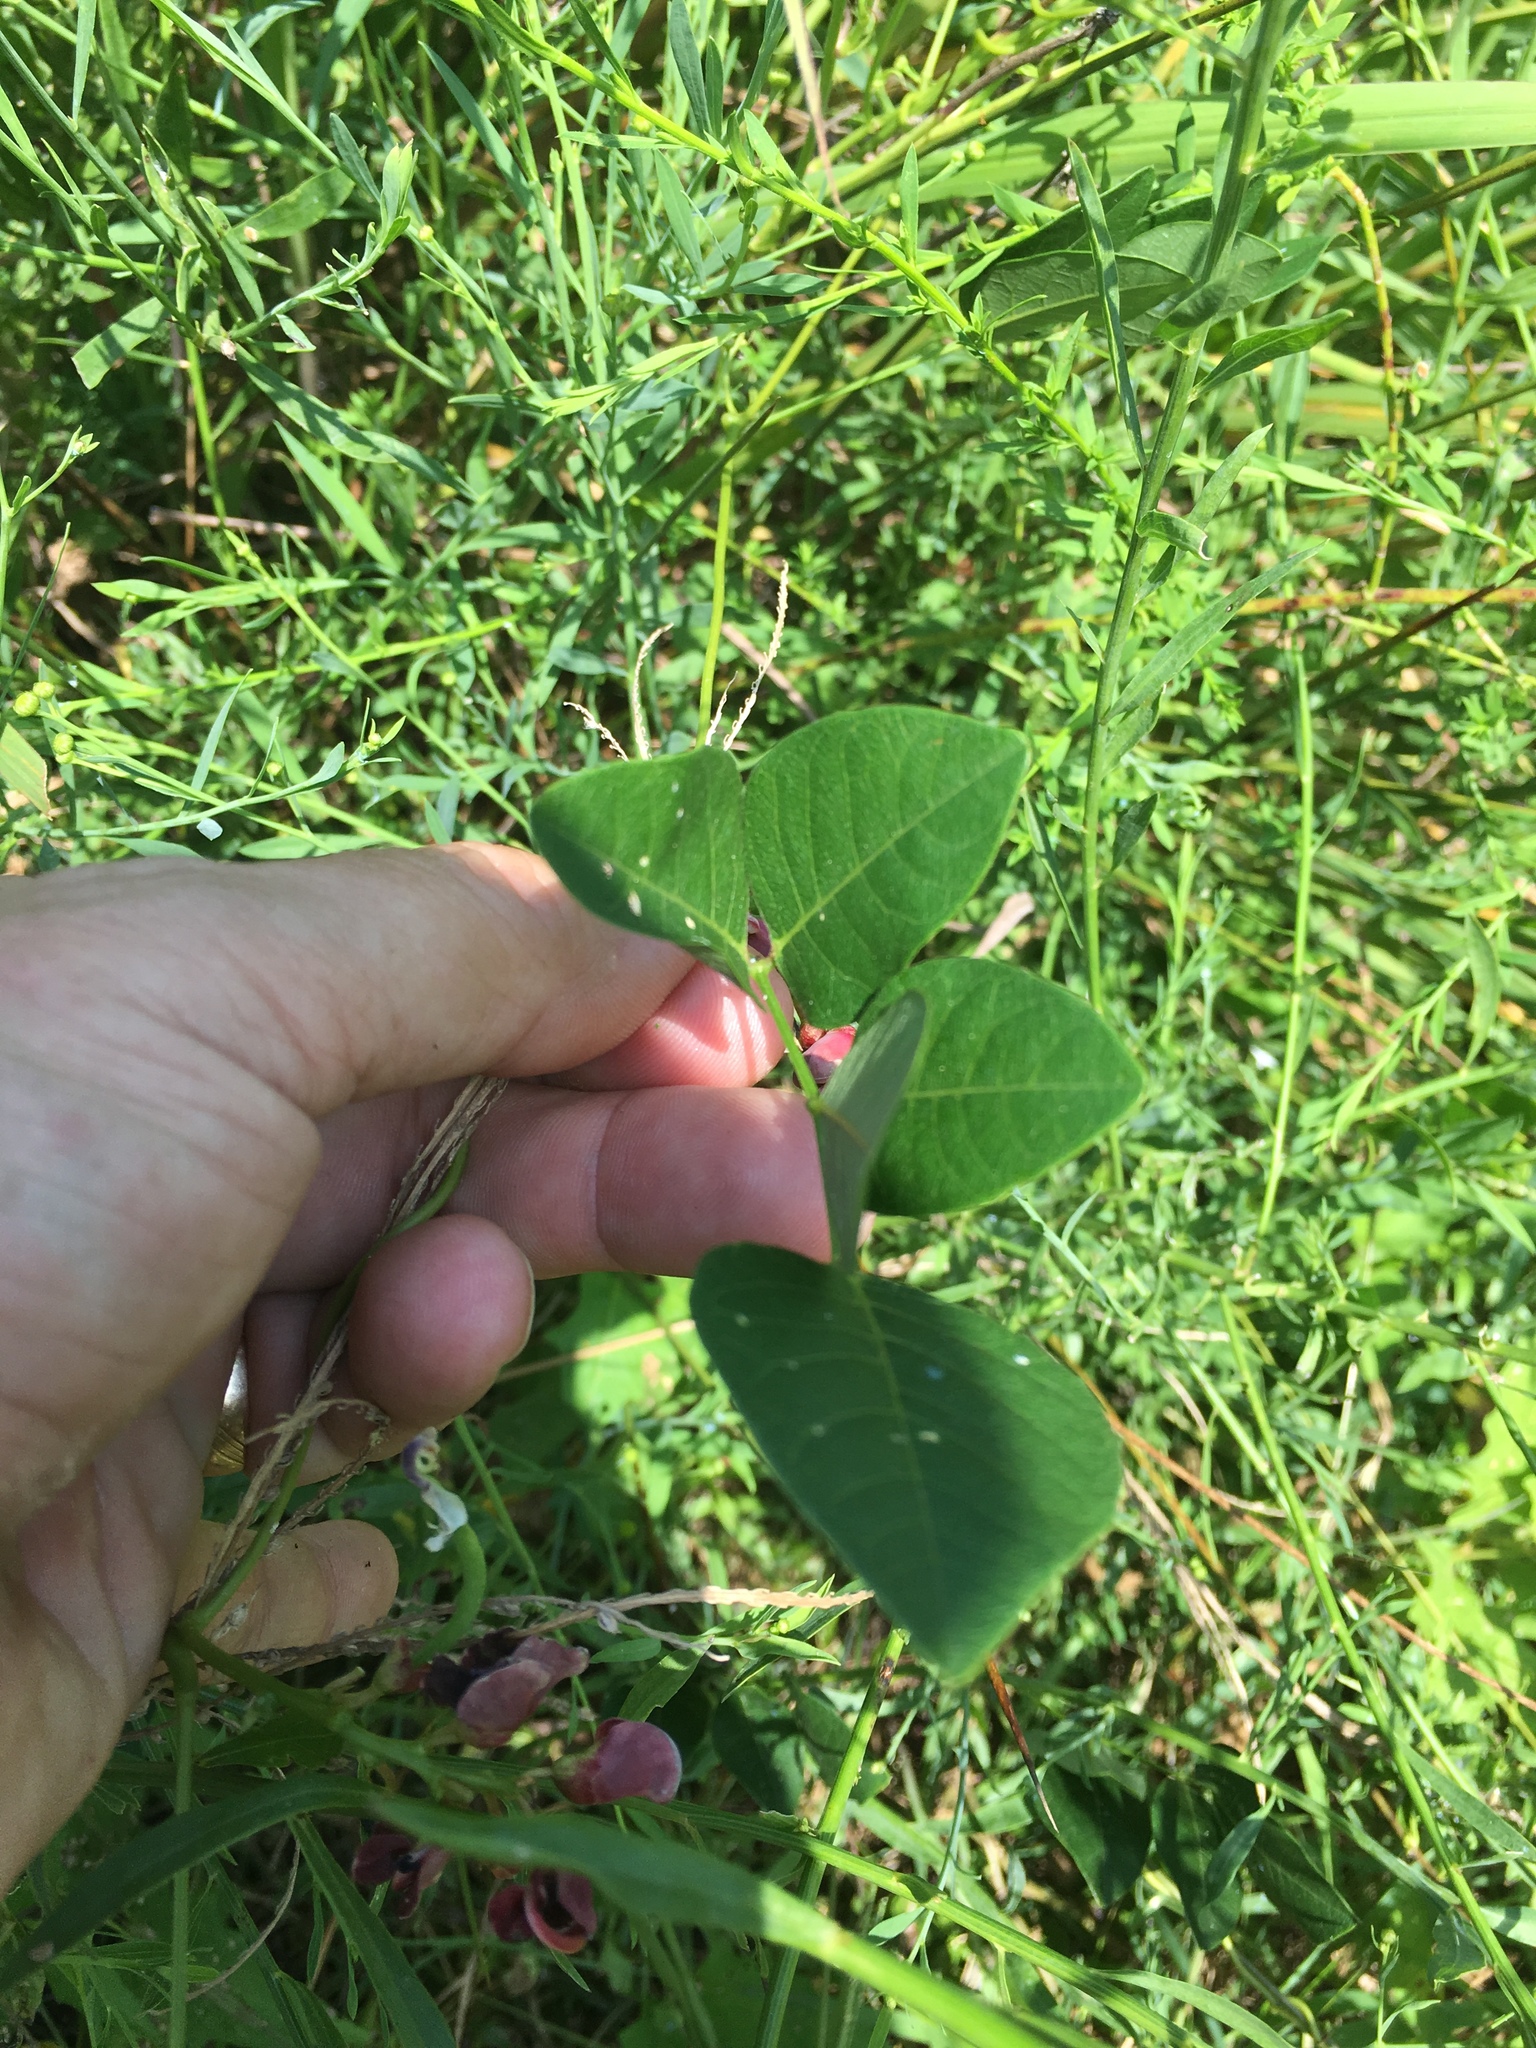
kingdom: Plantae
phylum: Tracheophyta
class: Magnoliopsida
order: Fabales
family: Fabaceae
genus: Apios
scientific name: Apios americana
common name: American potato-bean
